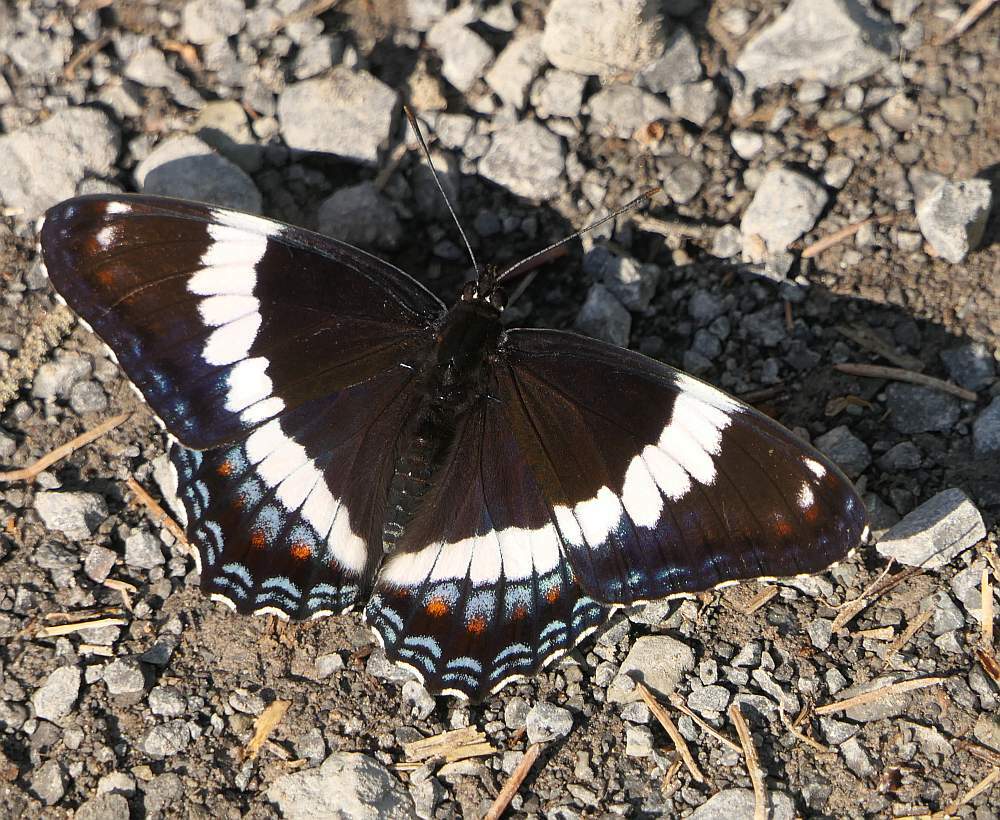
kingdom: Animalia
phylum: Arthropoda
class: Insecta
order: Lepidoptera
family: Nymphalidae
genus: Limenitis
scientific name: Limenitis arthemis
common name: Red-spotted admiral
